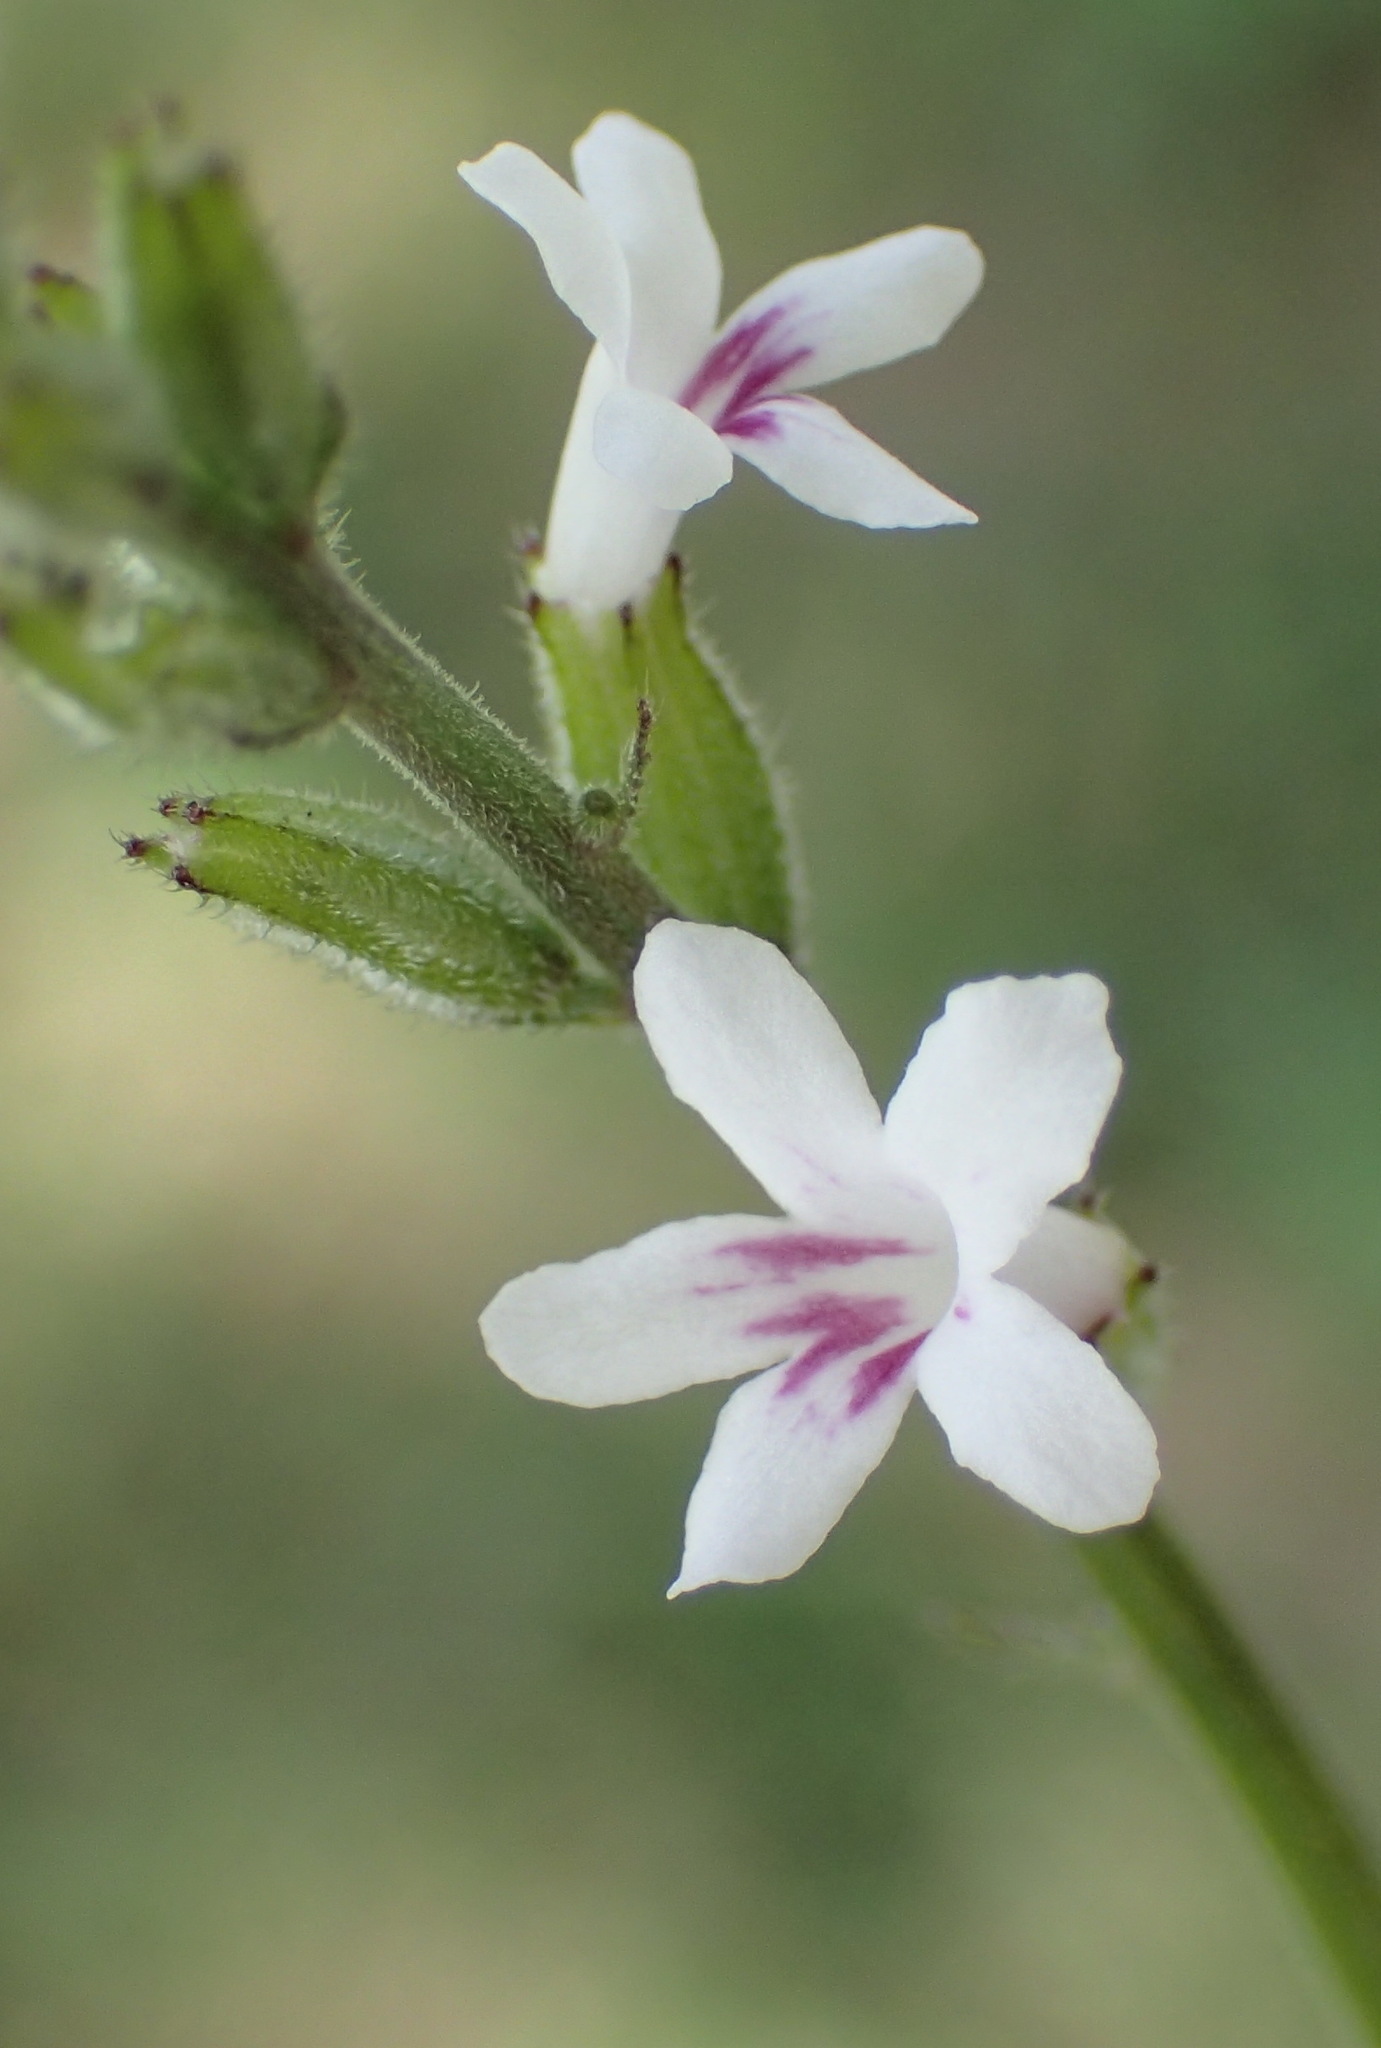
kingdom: Plantae
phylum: Tracheophyta
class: Magnoliopsida
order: Lamiales
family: Verbenaceae
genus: Priva
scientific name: Priva adhaerens
